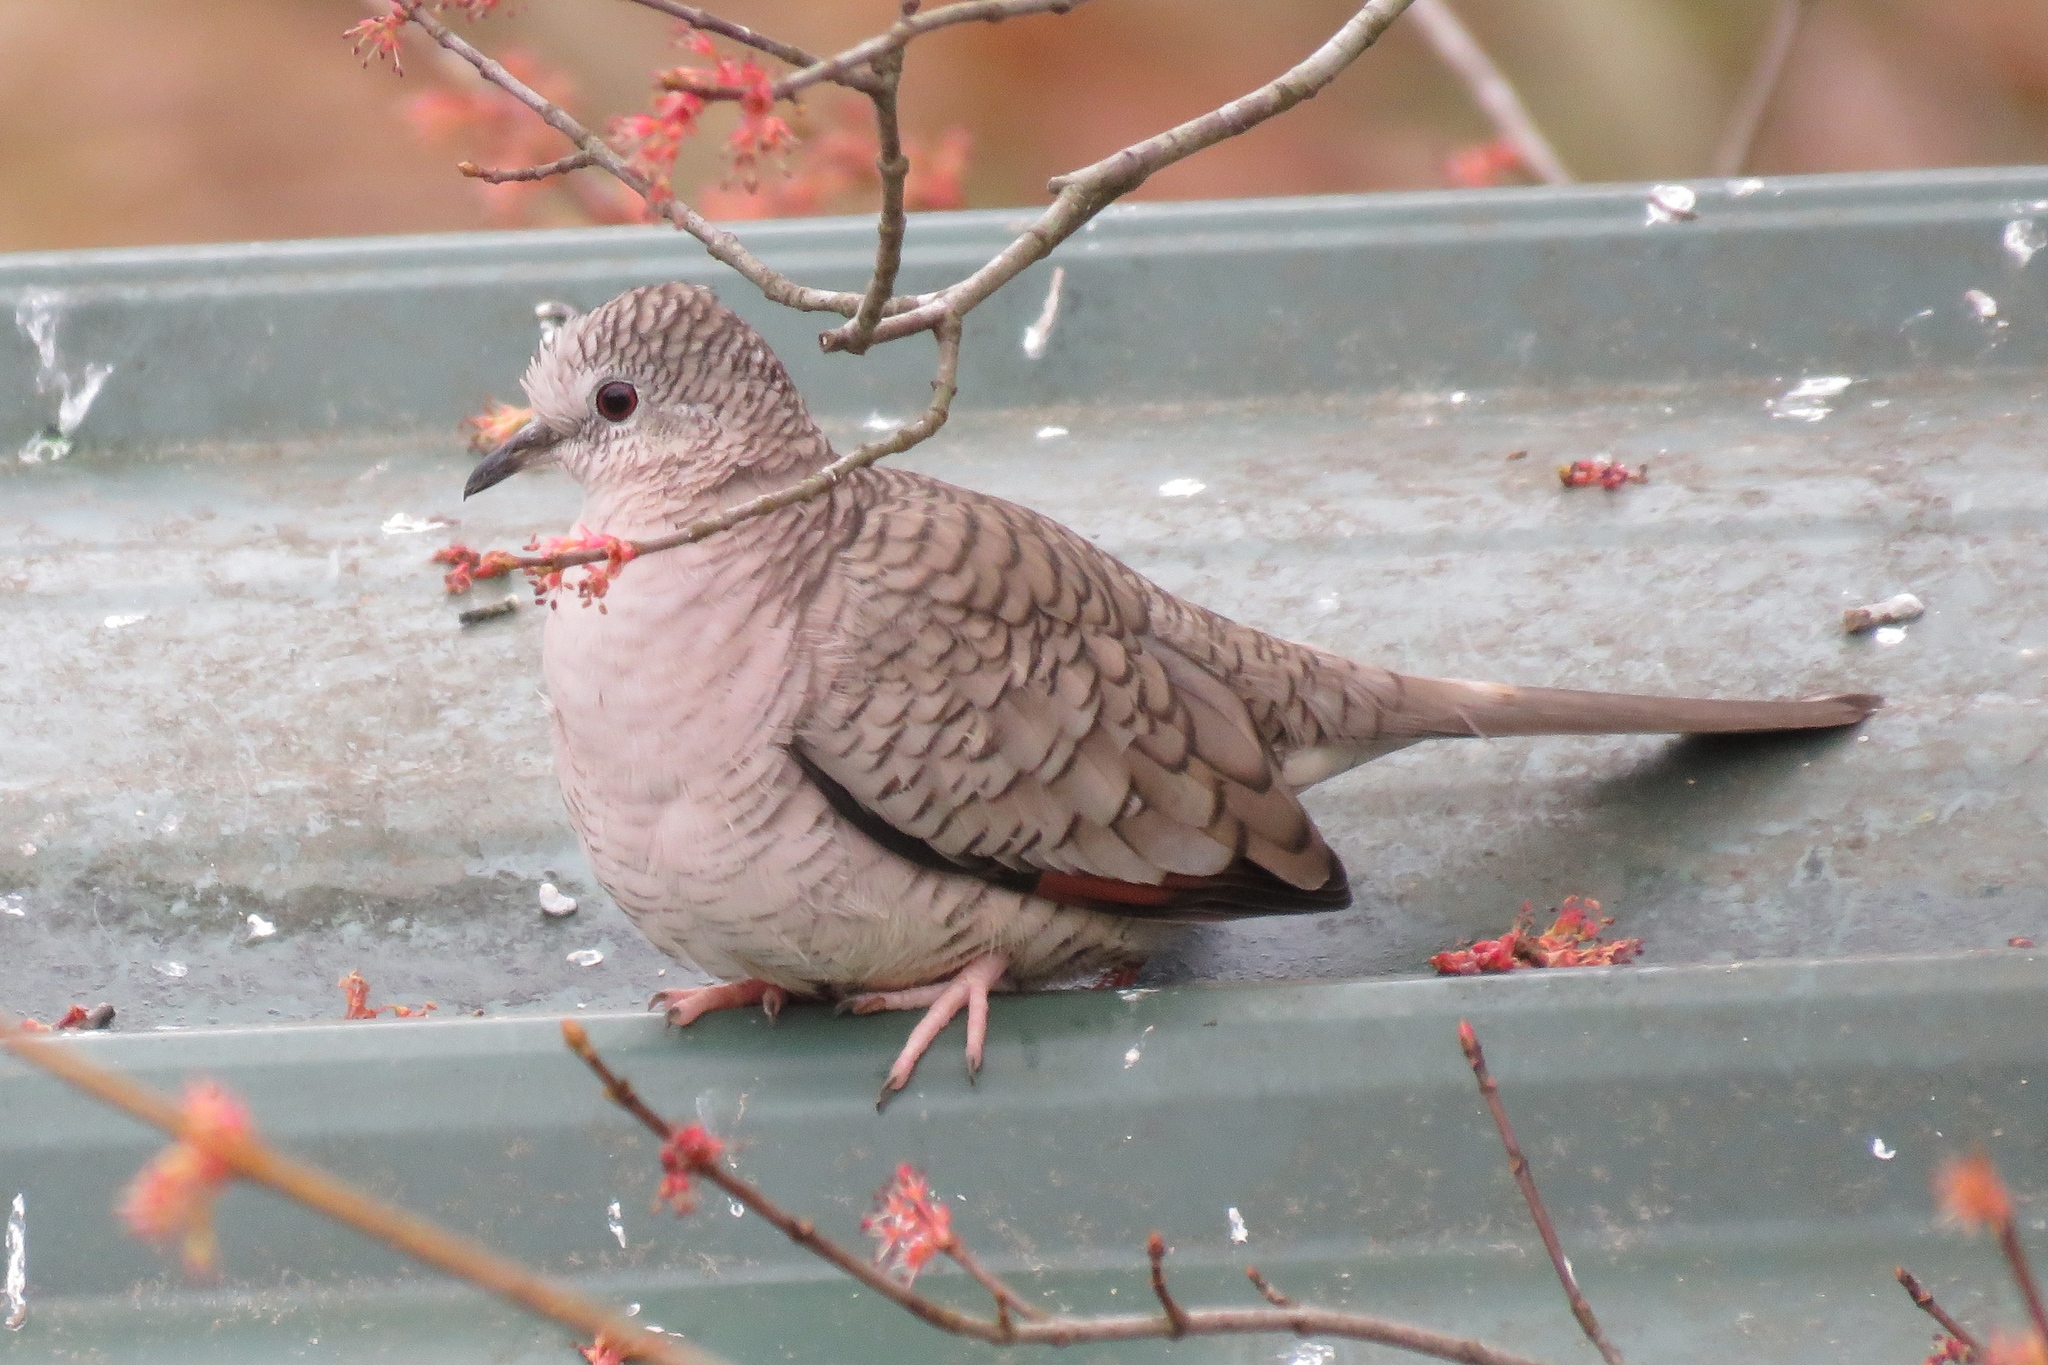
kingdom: Animalia
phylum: Chordata
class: Aves
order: Columbiformes
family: Columbidae
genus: Columbina
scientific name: Columbina inca
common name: Inca dove
